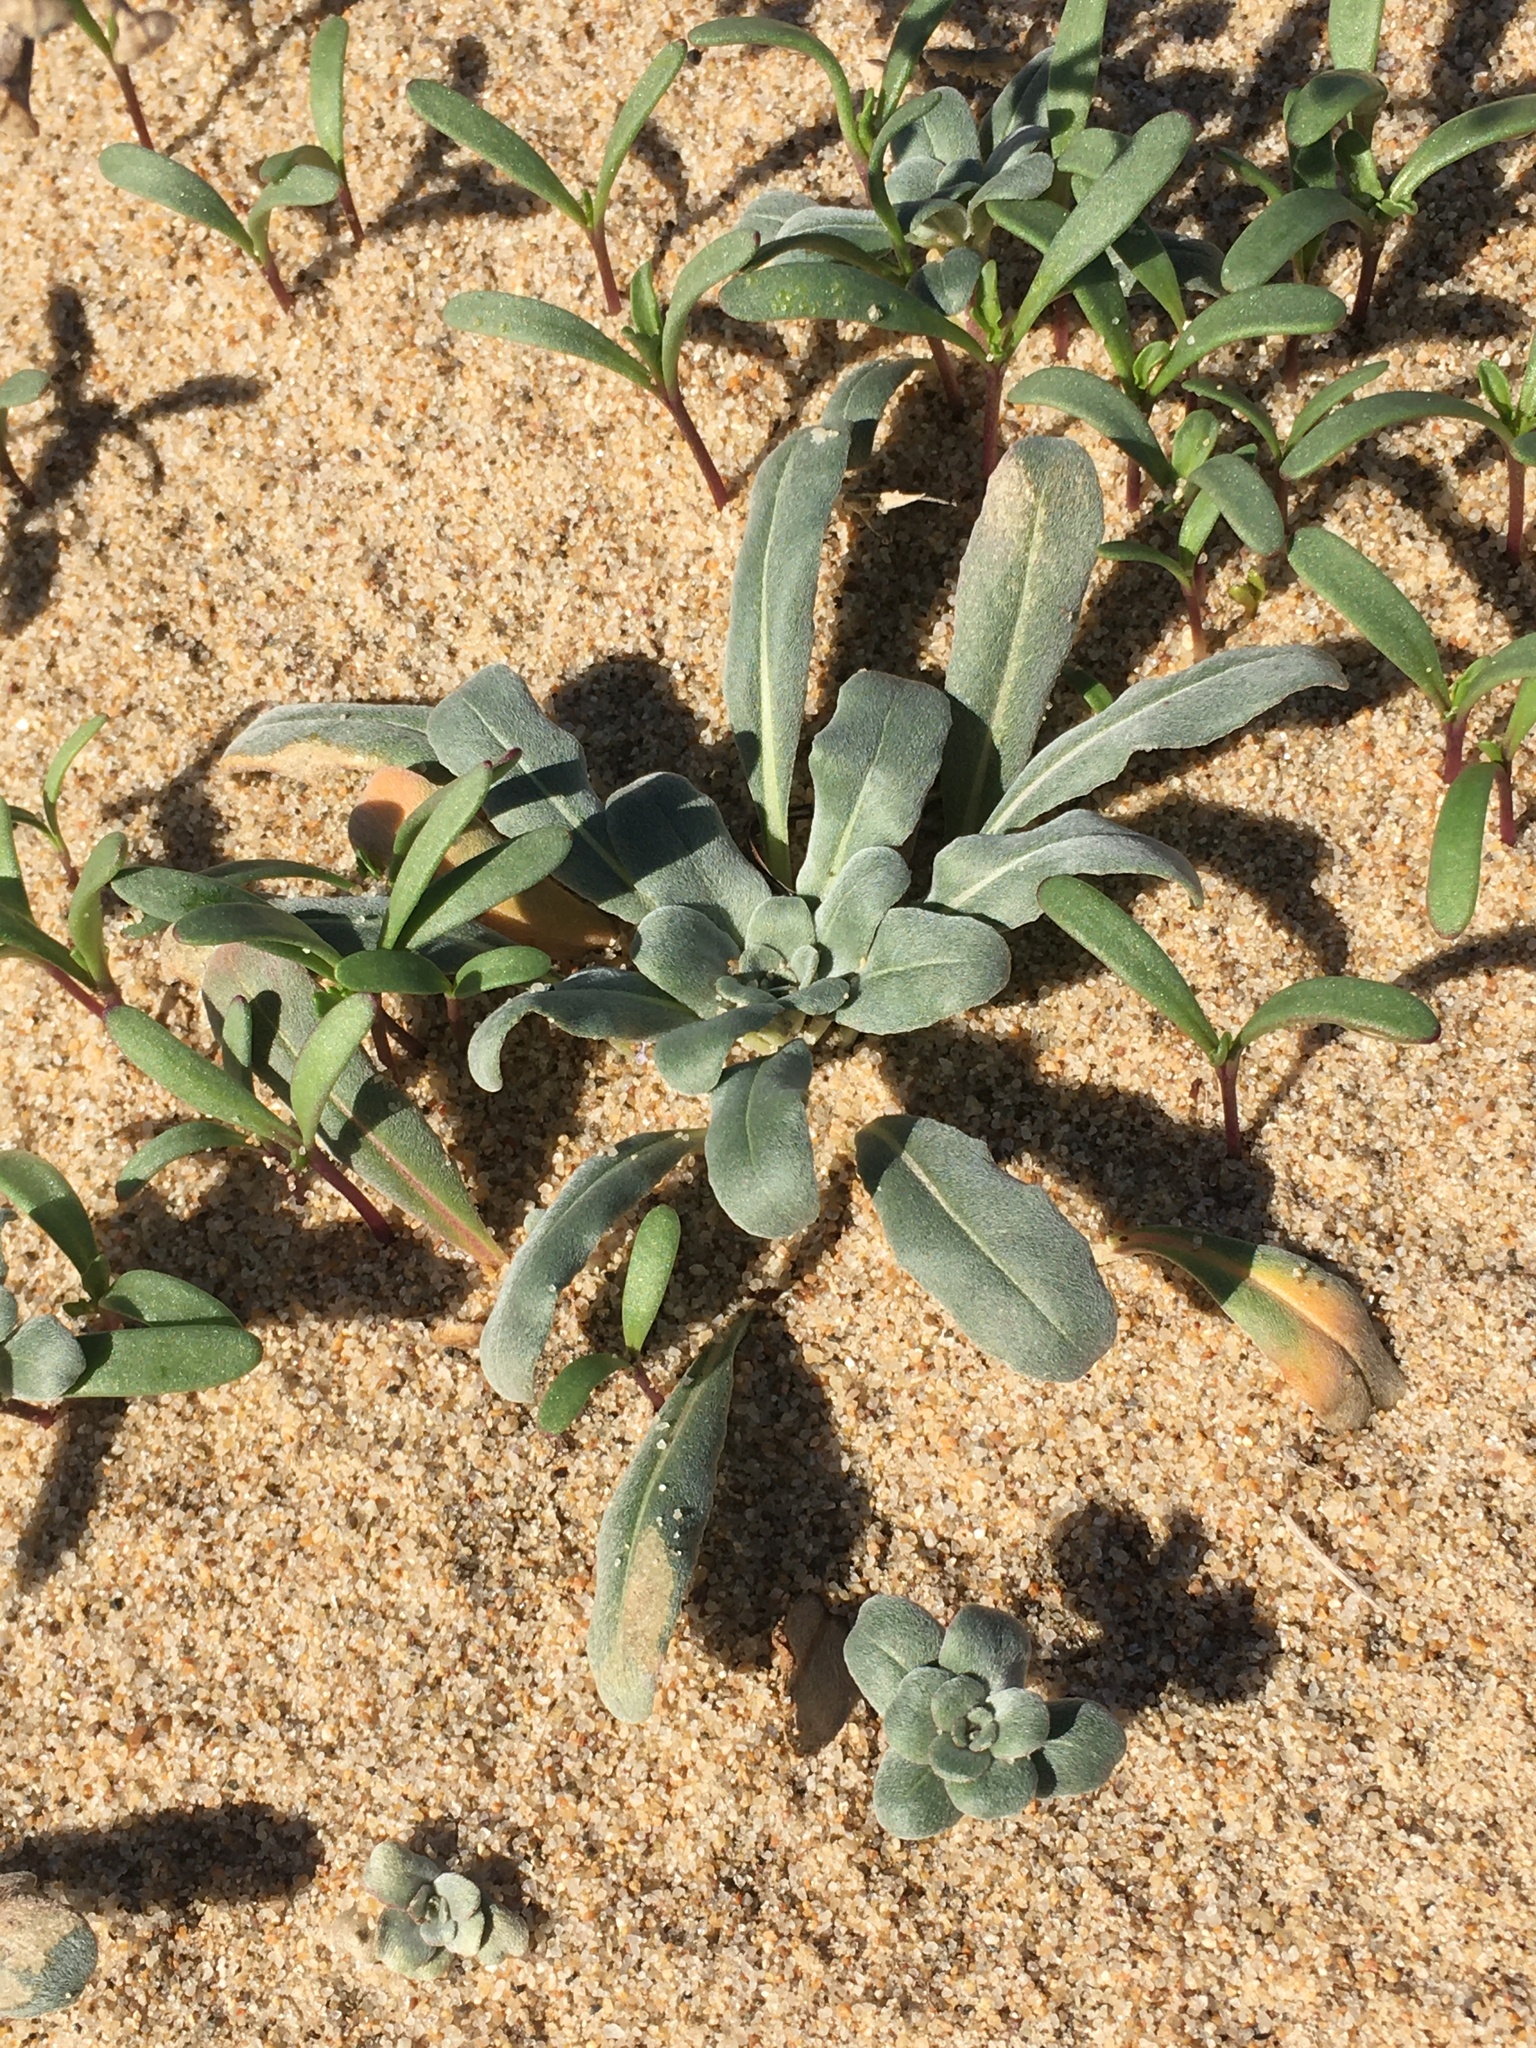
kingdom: Plantae
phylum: Tracheophyta
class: Magnoliopsida
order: Myrtales
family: Onagraceae
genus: Camissoniopsis
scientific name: Camissoniopsis cheiranthifolia
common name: Beach suncup
